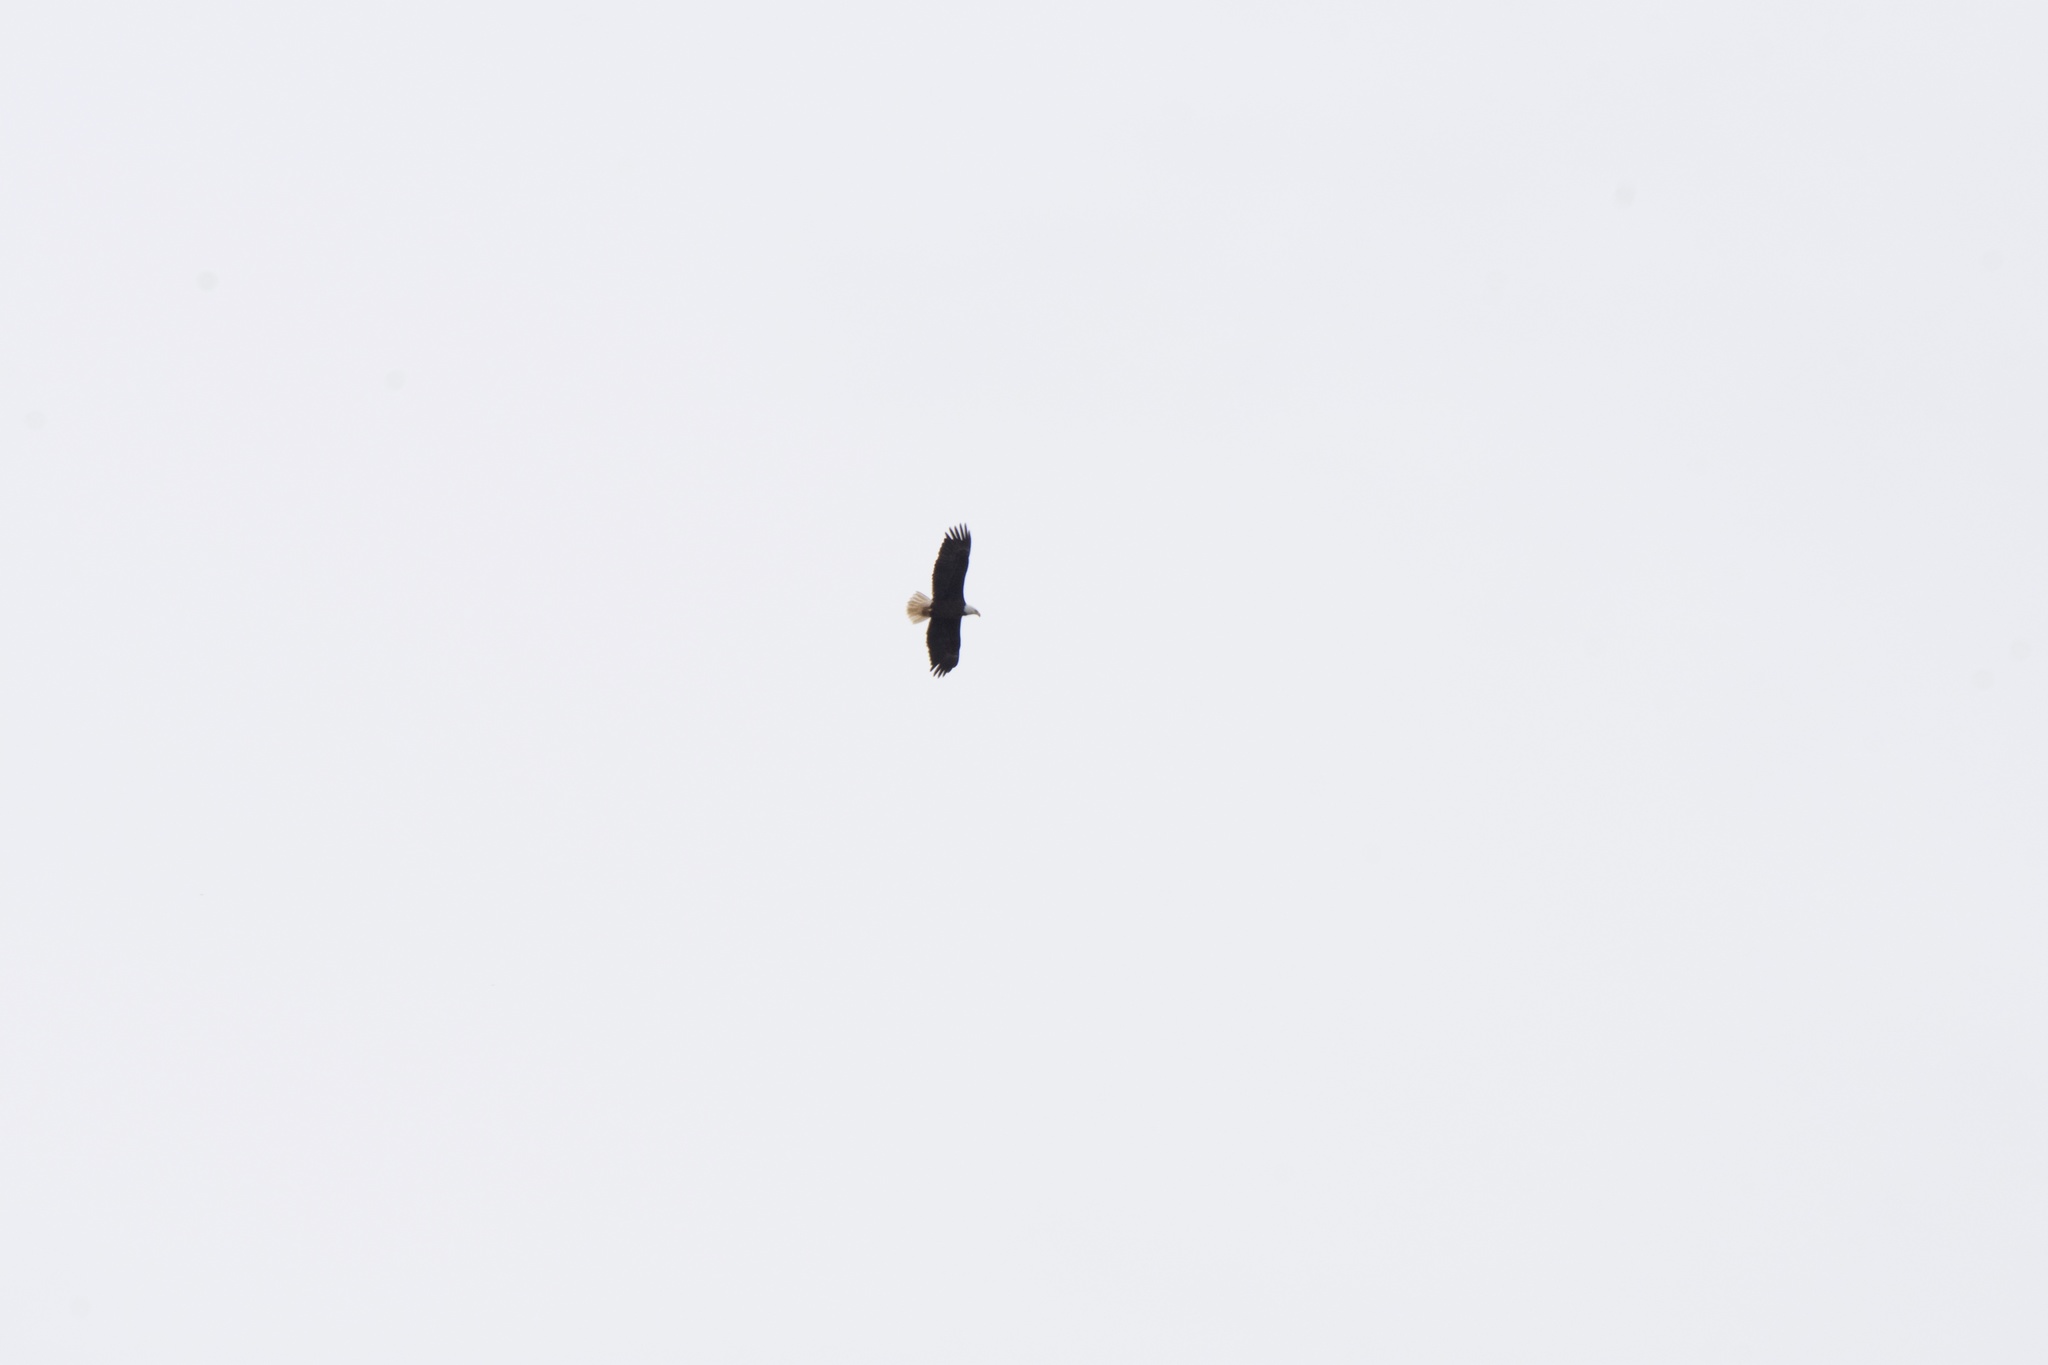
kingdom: Animalia
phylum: Chordata
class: Aves
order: Accipitriformes
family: Accipitridae
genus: Haliaeetus
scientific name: Haliaeetus leucocephalus
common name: Bald eagle
